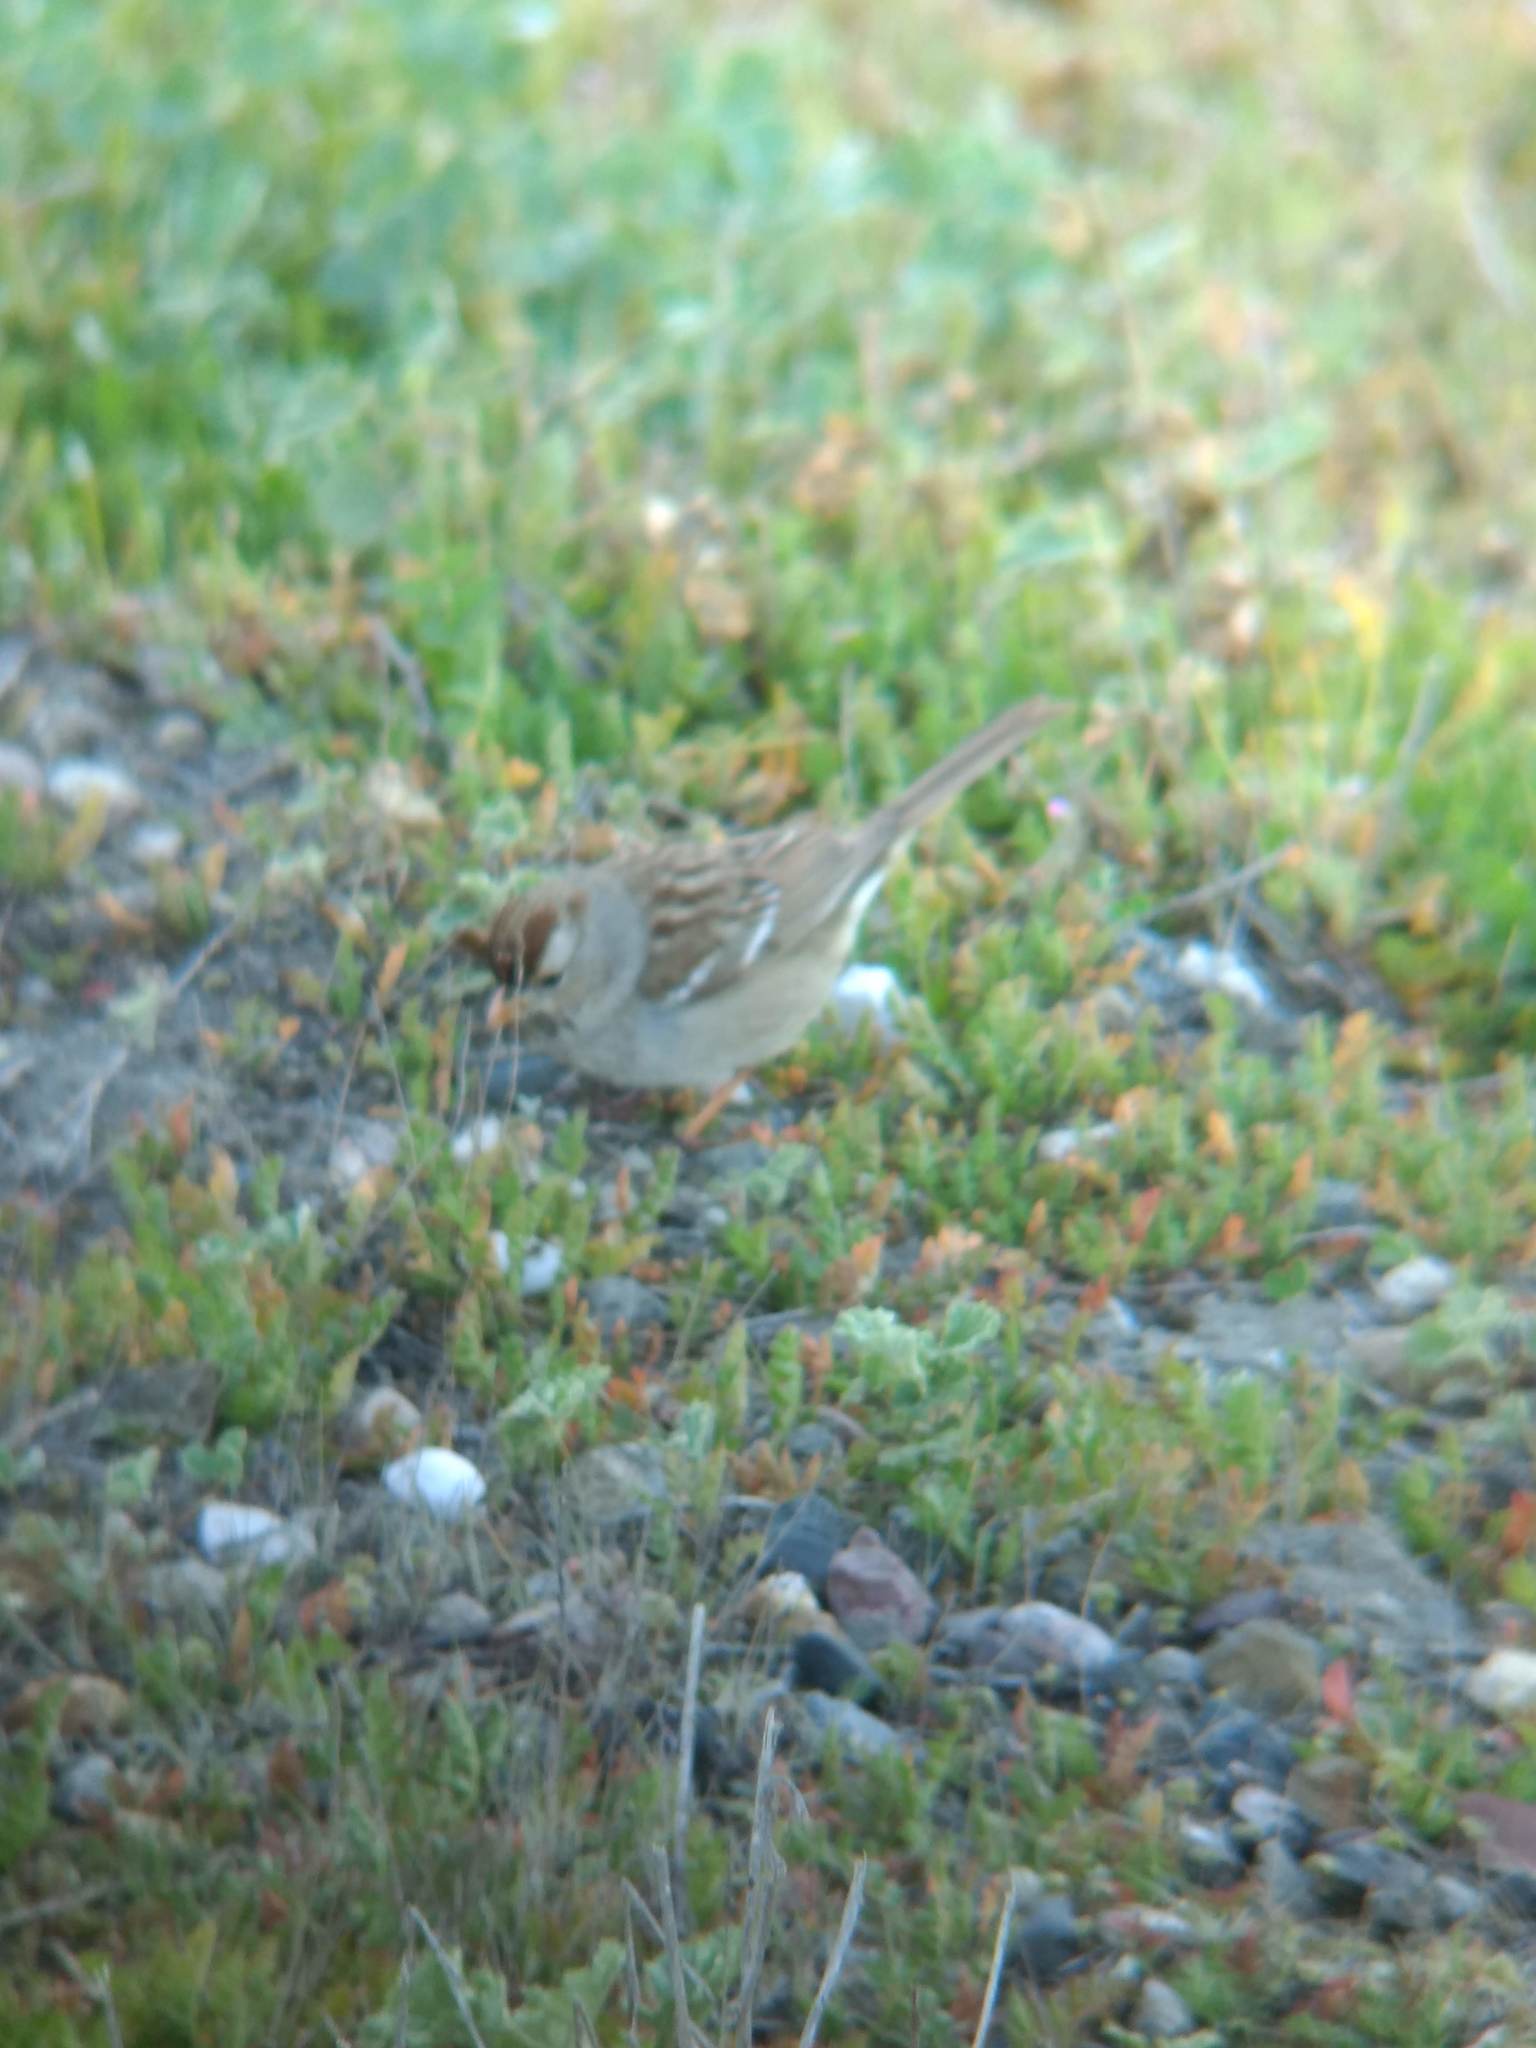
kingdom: Animalia
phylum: Chordata
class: Aves
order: Passeriformes
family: Passerellidae
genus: Zonotrichia
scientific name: Zonotrichia leucophrys
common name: White-crowned sparrow
